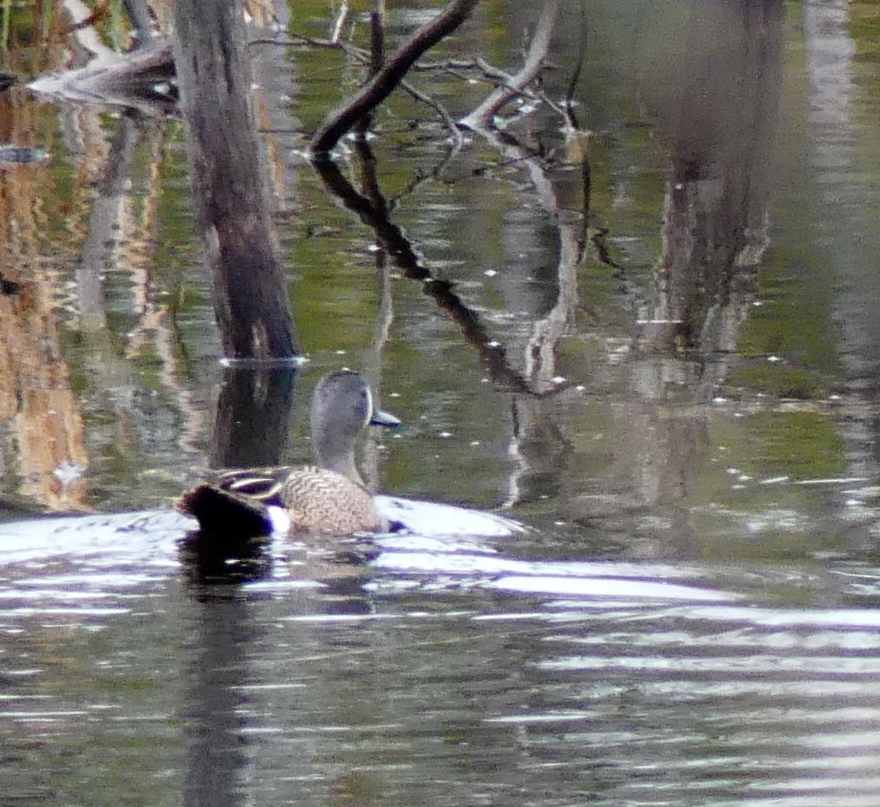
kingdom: Animalia
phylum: Chordata
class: Aves
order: Anseriformes
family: Anatidae
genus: Spatula
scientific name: Spatula discors
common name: Blue-winged teal
